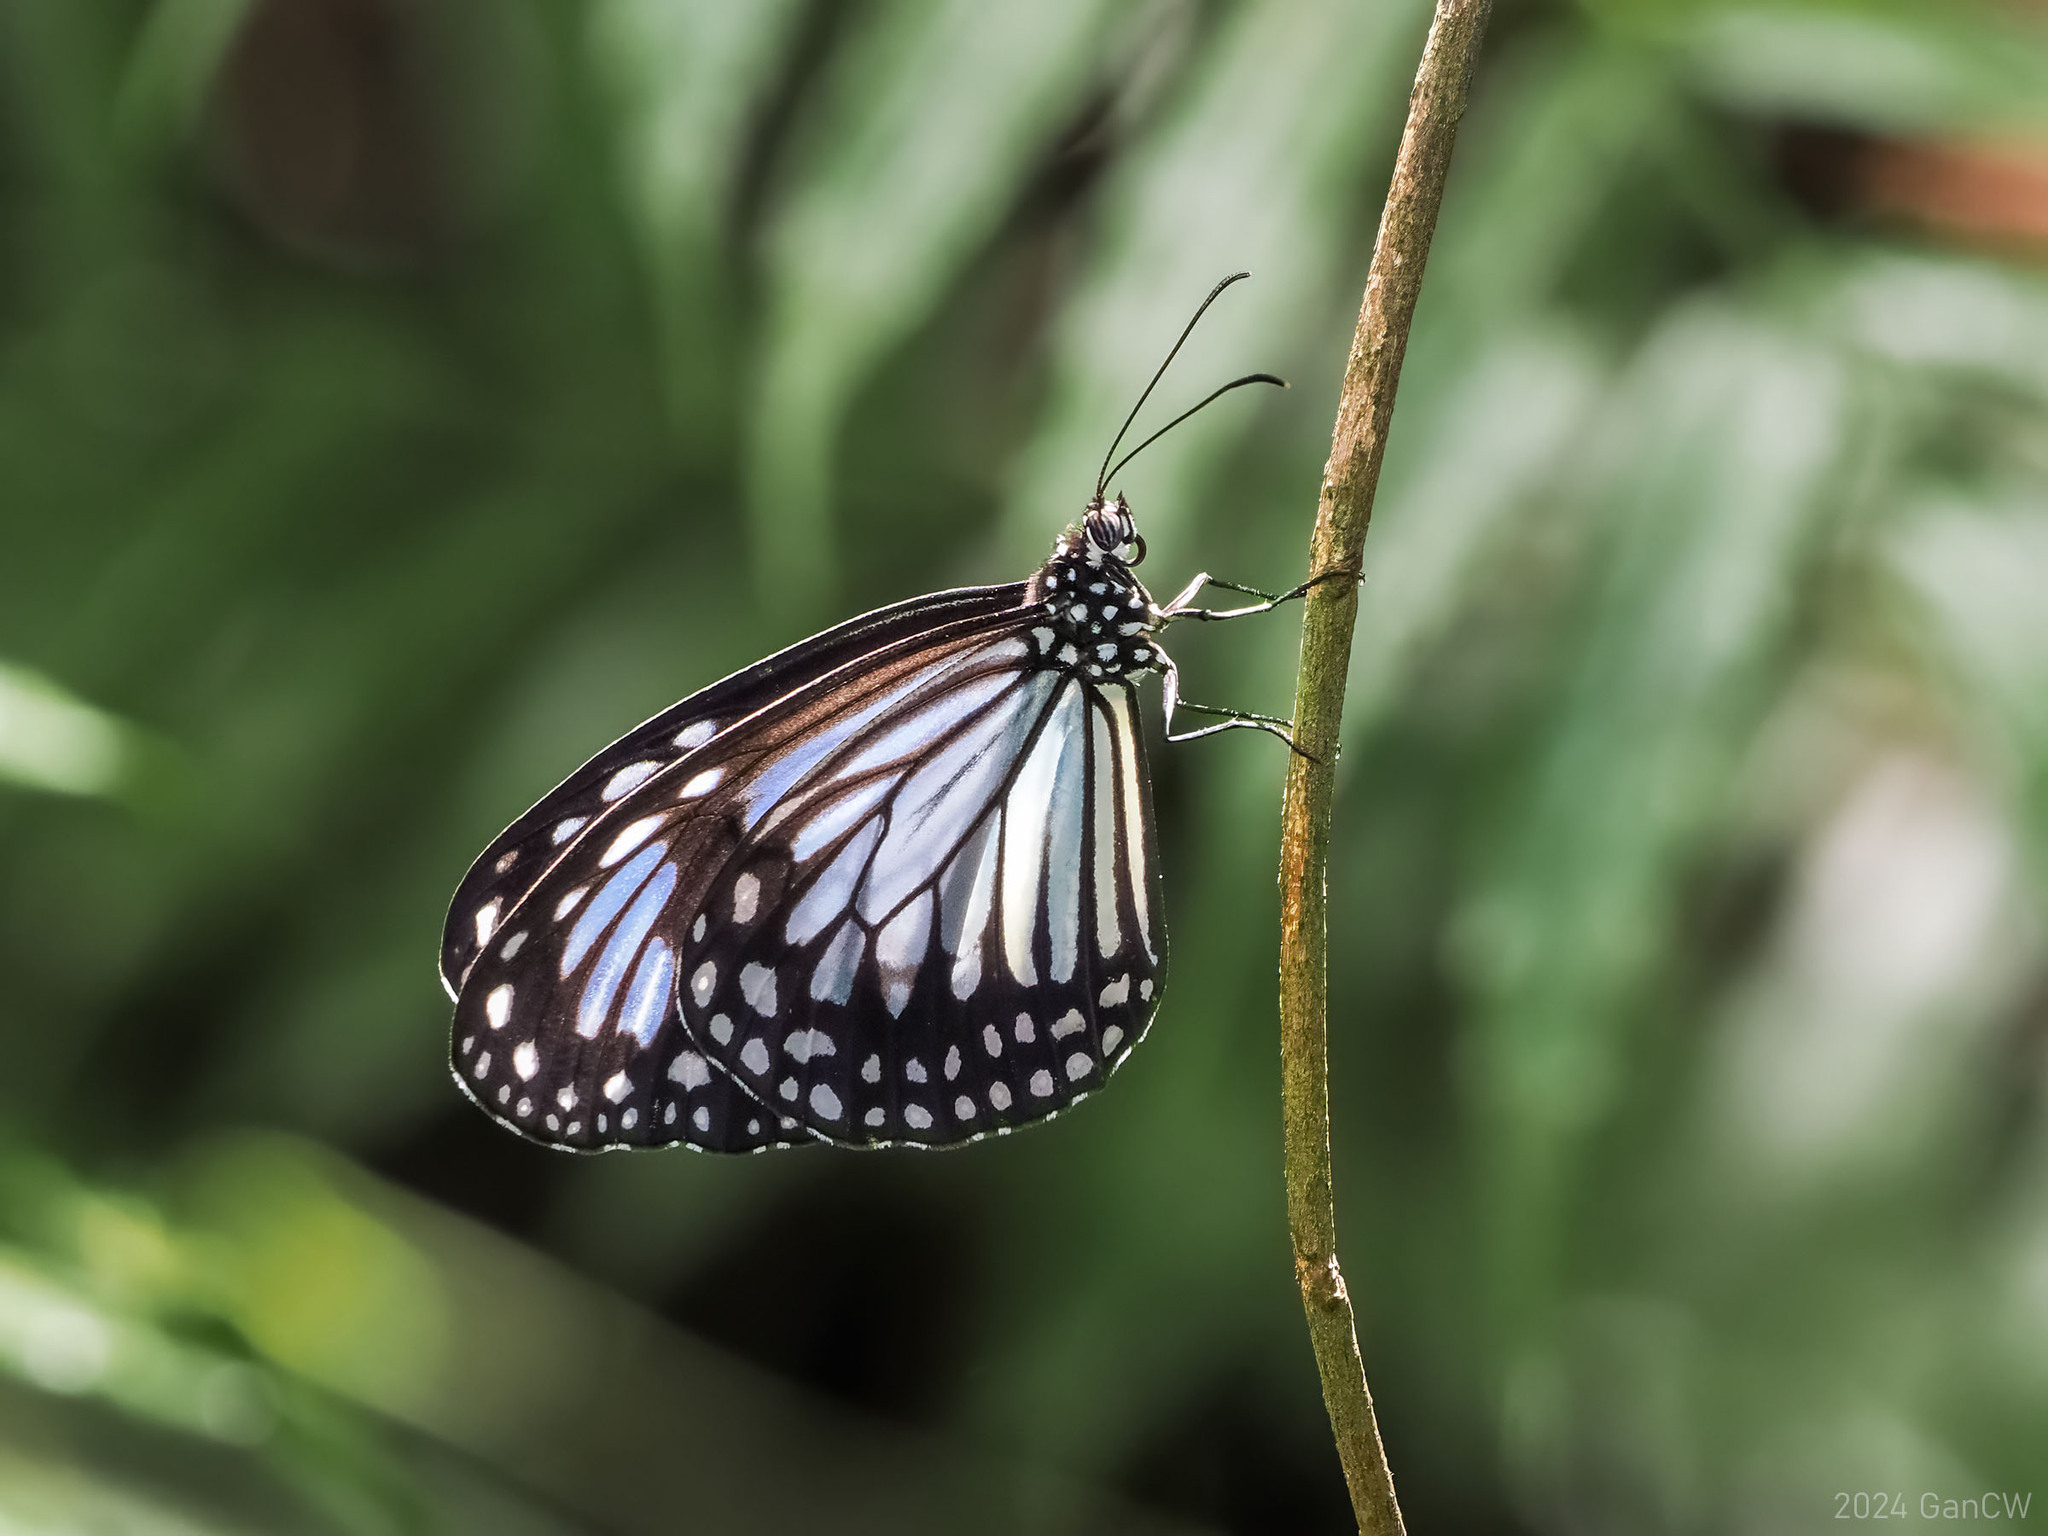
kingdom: Animalia
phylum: Arthropoda
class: Insecta
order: Lepidoptera
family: Nymphalidae
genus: Parantica
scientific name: Parantica vitrina
